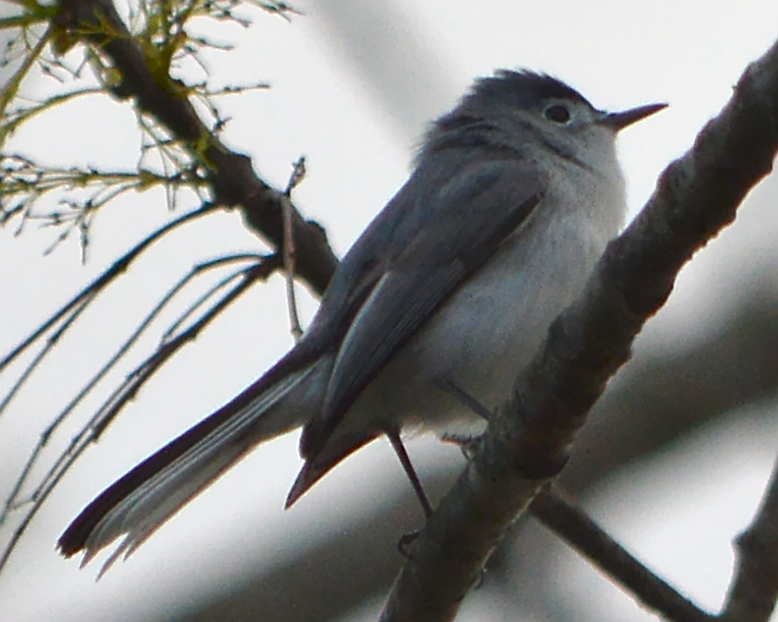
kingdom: Animalia
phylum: Chordata
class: Aves
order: Passeriformes
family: Polioptilidae
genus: Polioptila
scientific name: Polioptila caerulea
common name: Blue-gray gnatcatcher
